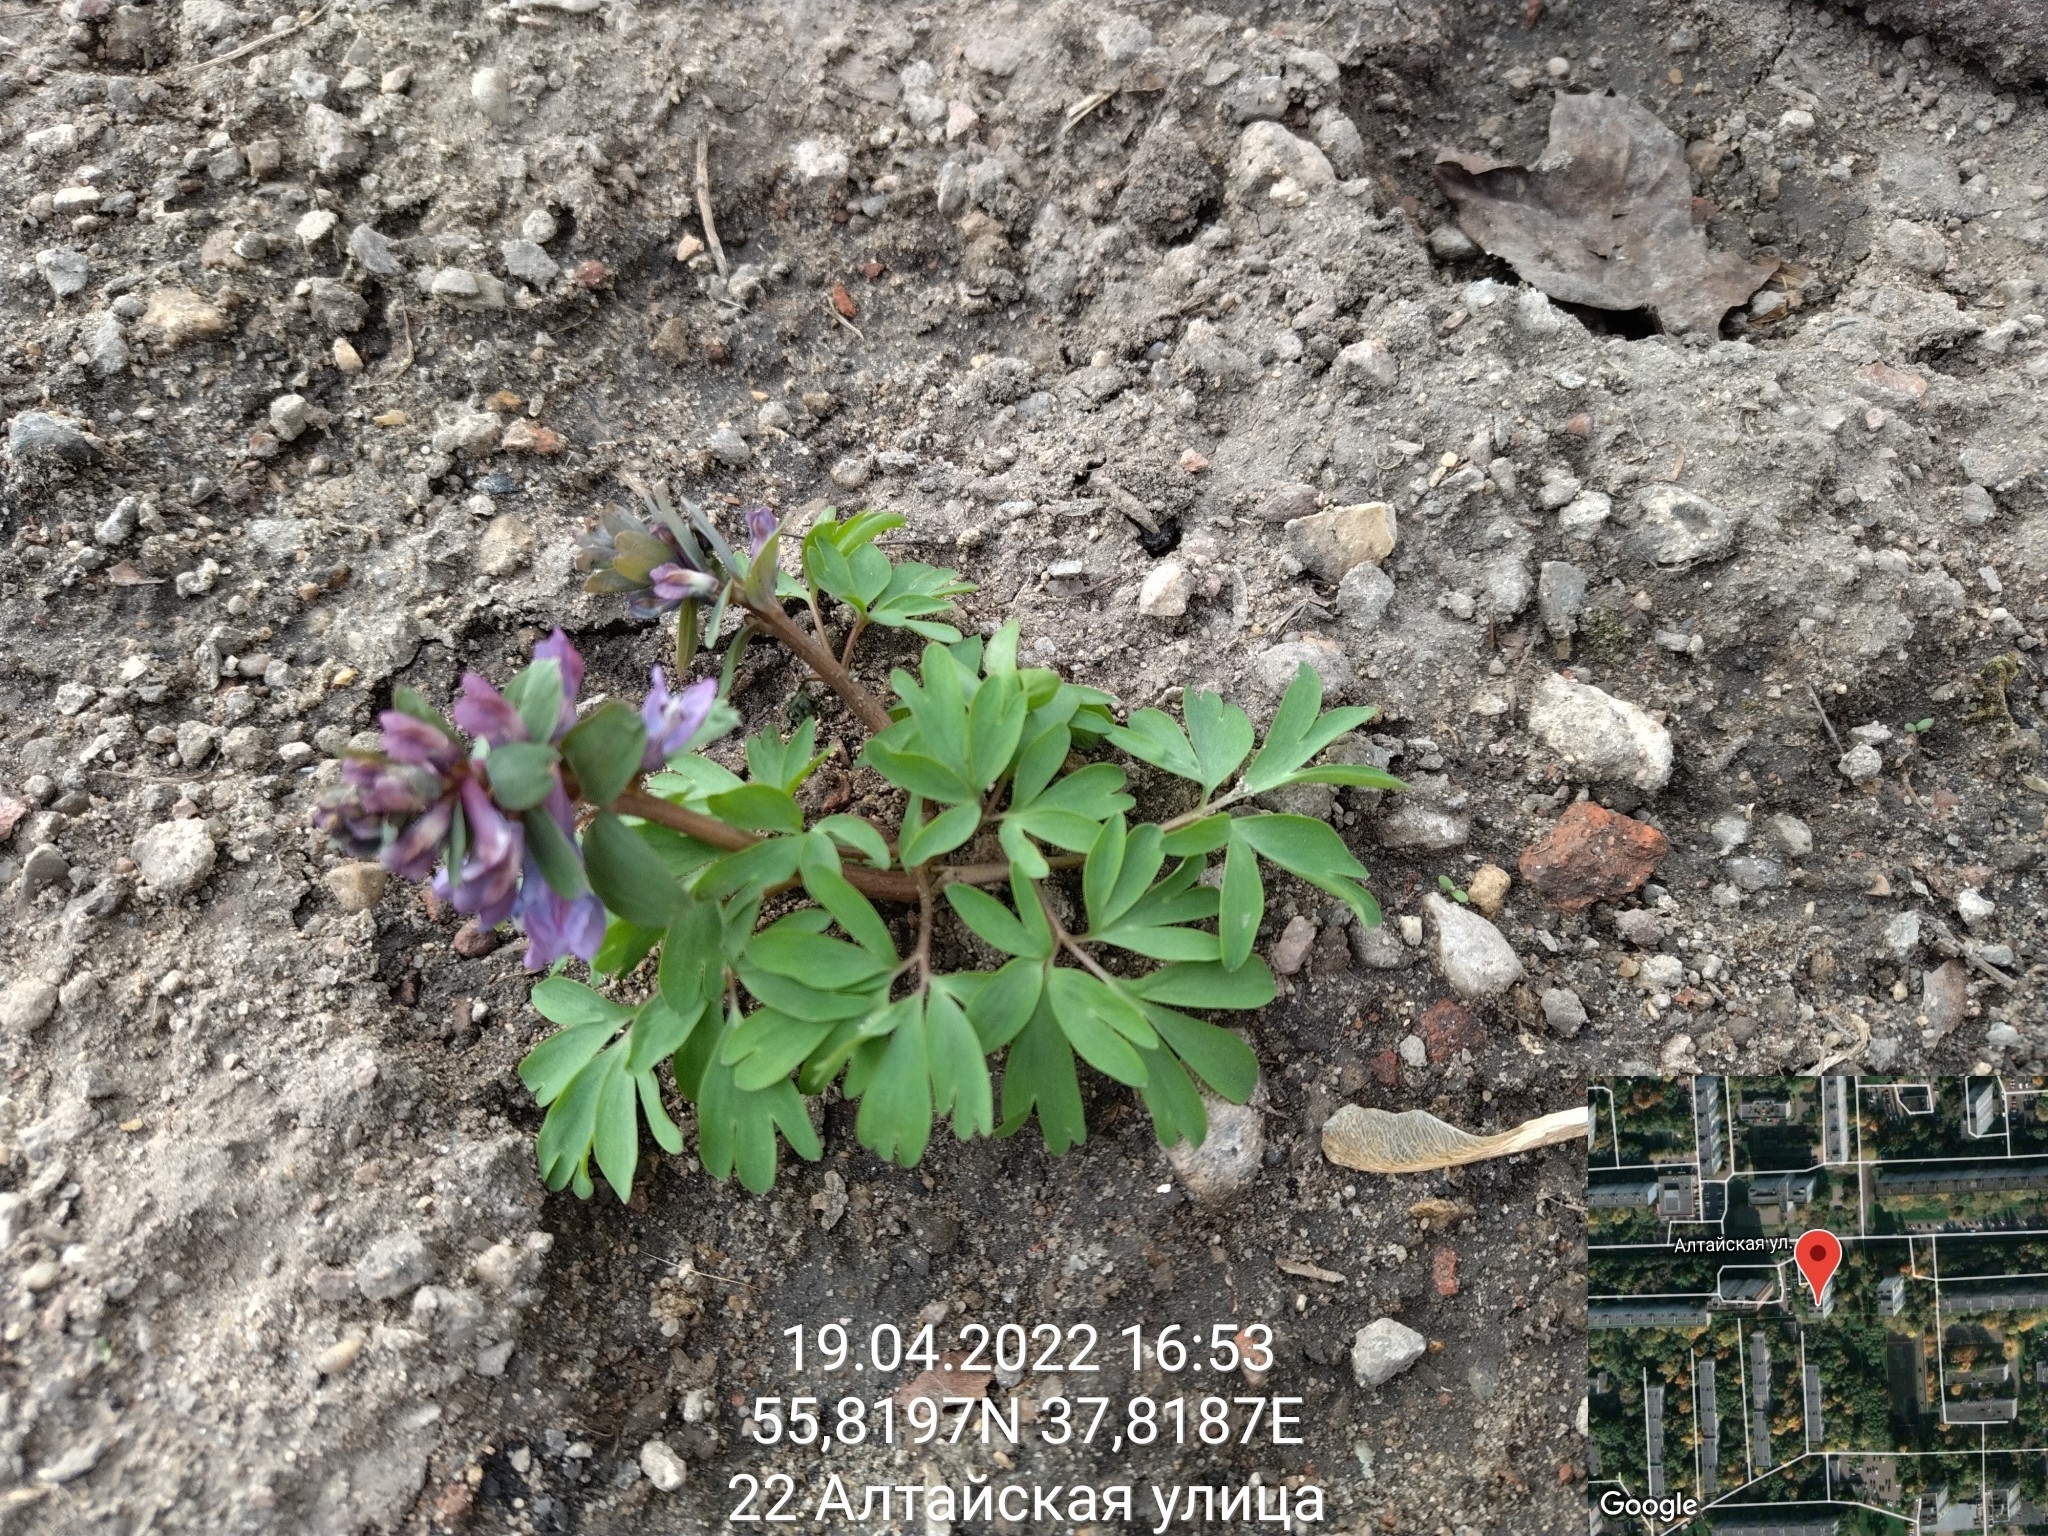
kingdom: Plantae
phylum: Tracheophyta
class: Magnoliopsida
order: Ranunculales
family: Papaveraceae
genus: Corydalis
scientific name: Corydalis solida
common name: Bird-in-a-bush
